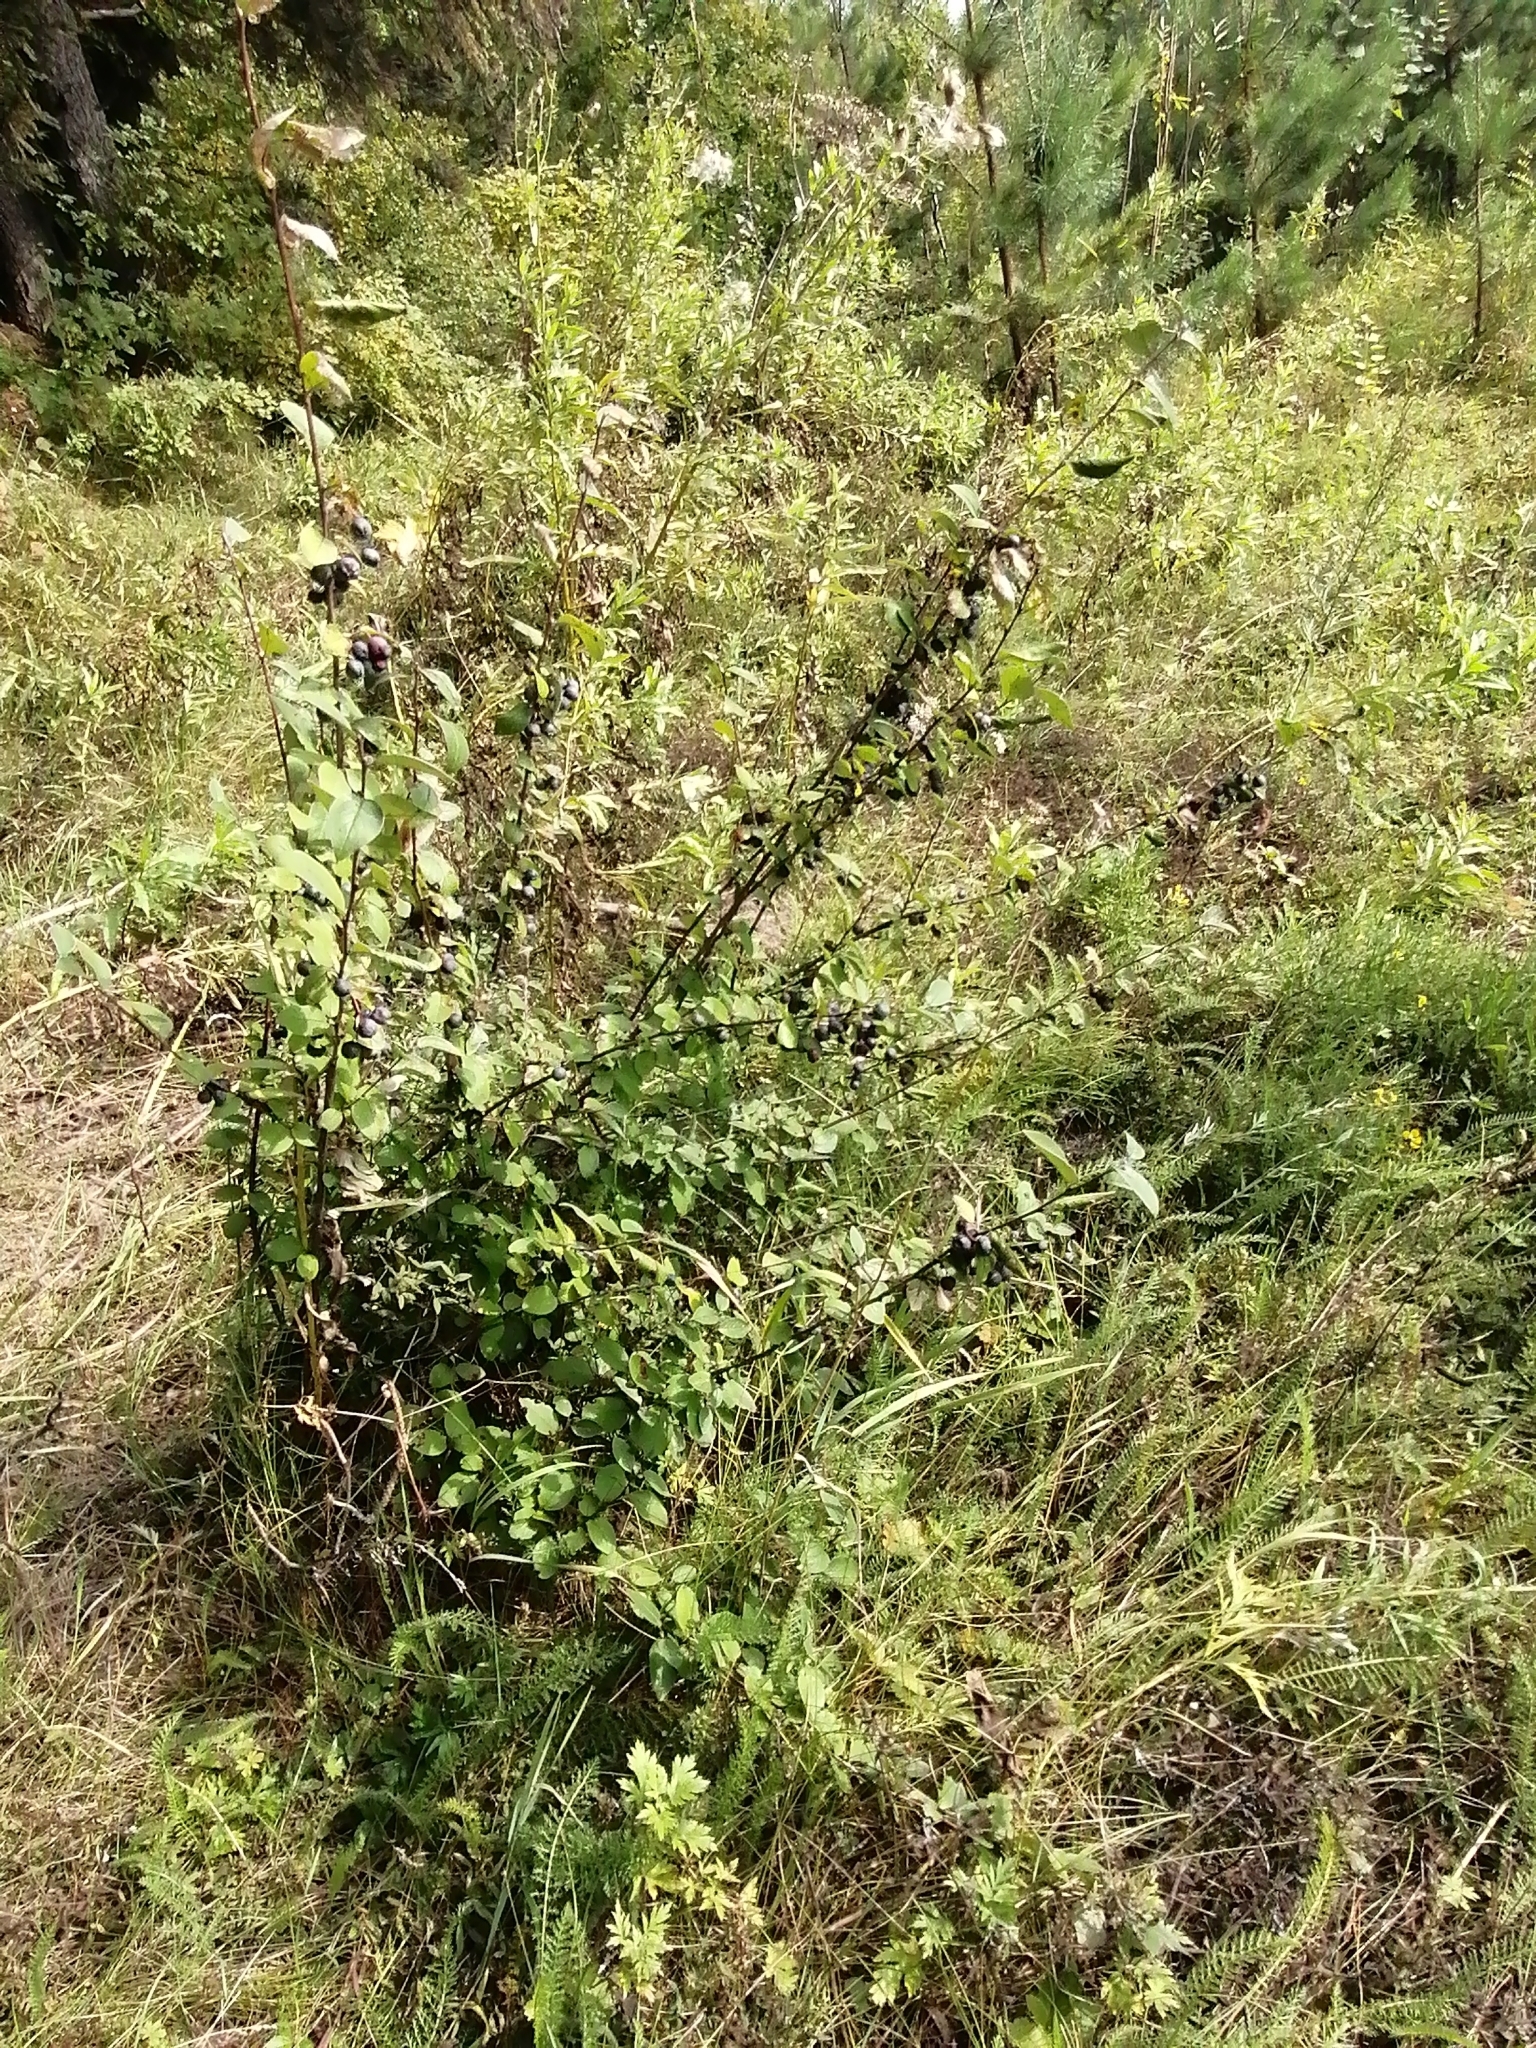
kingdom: Plantae
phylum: Tracheophyta
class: Magnoliopsida
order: Rosales
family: Rosaceae
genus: Cotoneaster
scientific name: Cotoneaster melanocarpus
